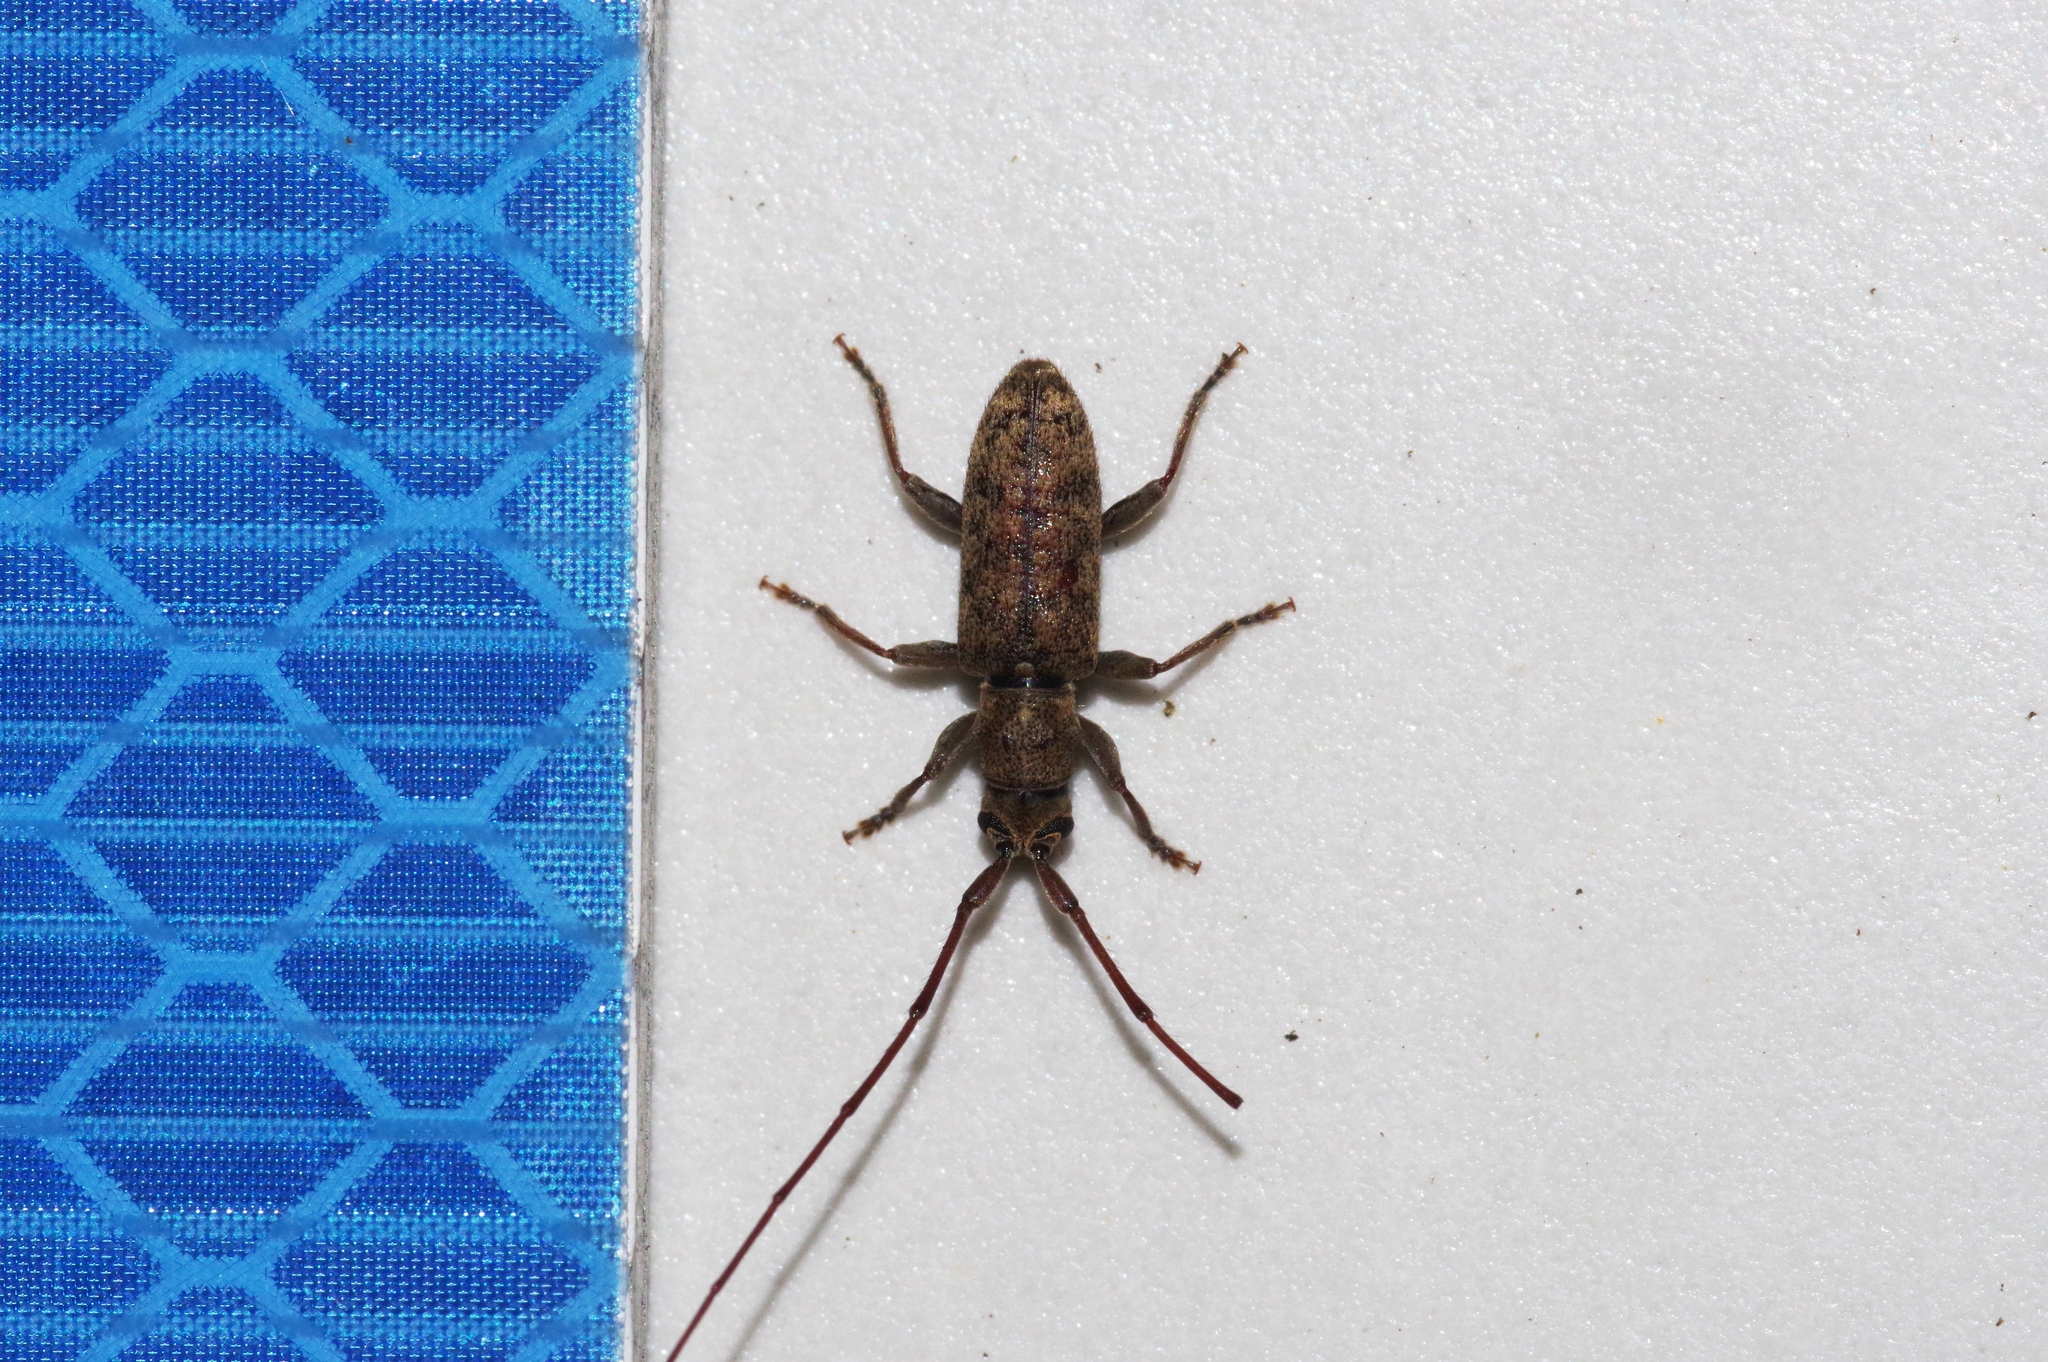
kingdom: Animalia
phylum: Arthropoda
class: Insecta
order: Coleoptera
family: Cerambycidae
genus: Xenolea
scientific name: Xenolea asiatica
